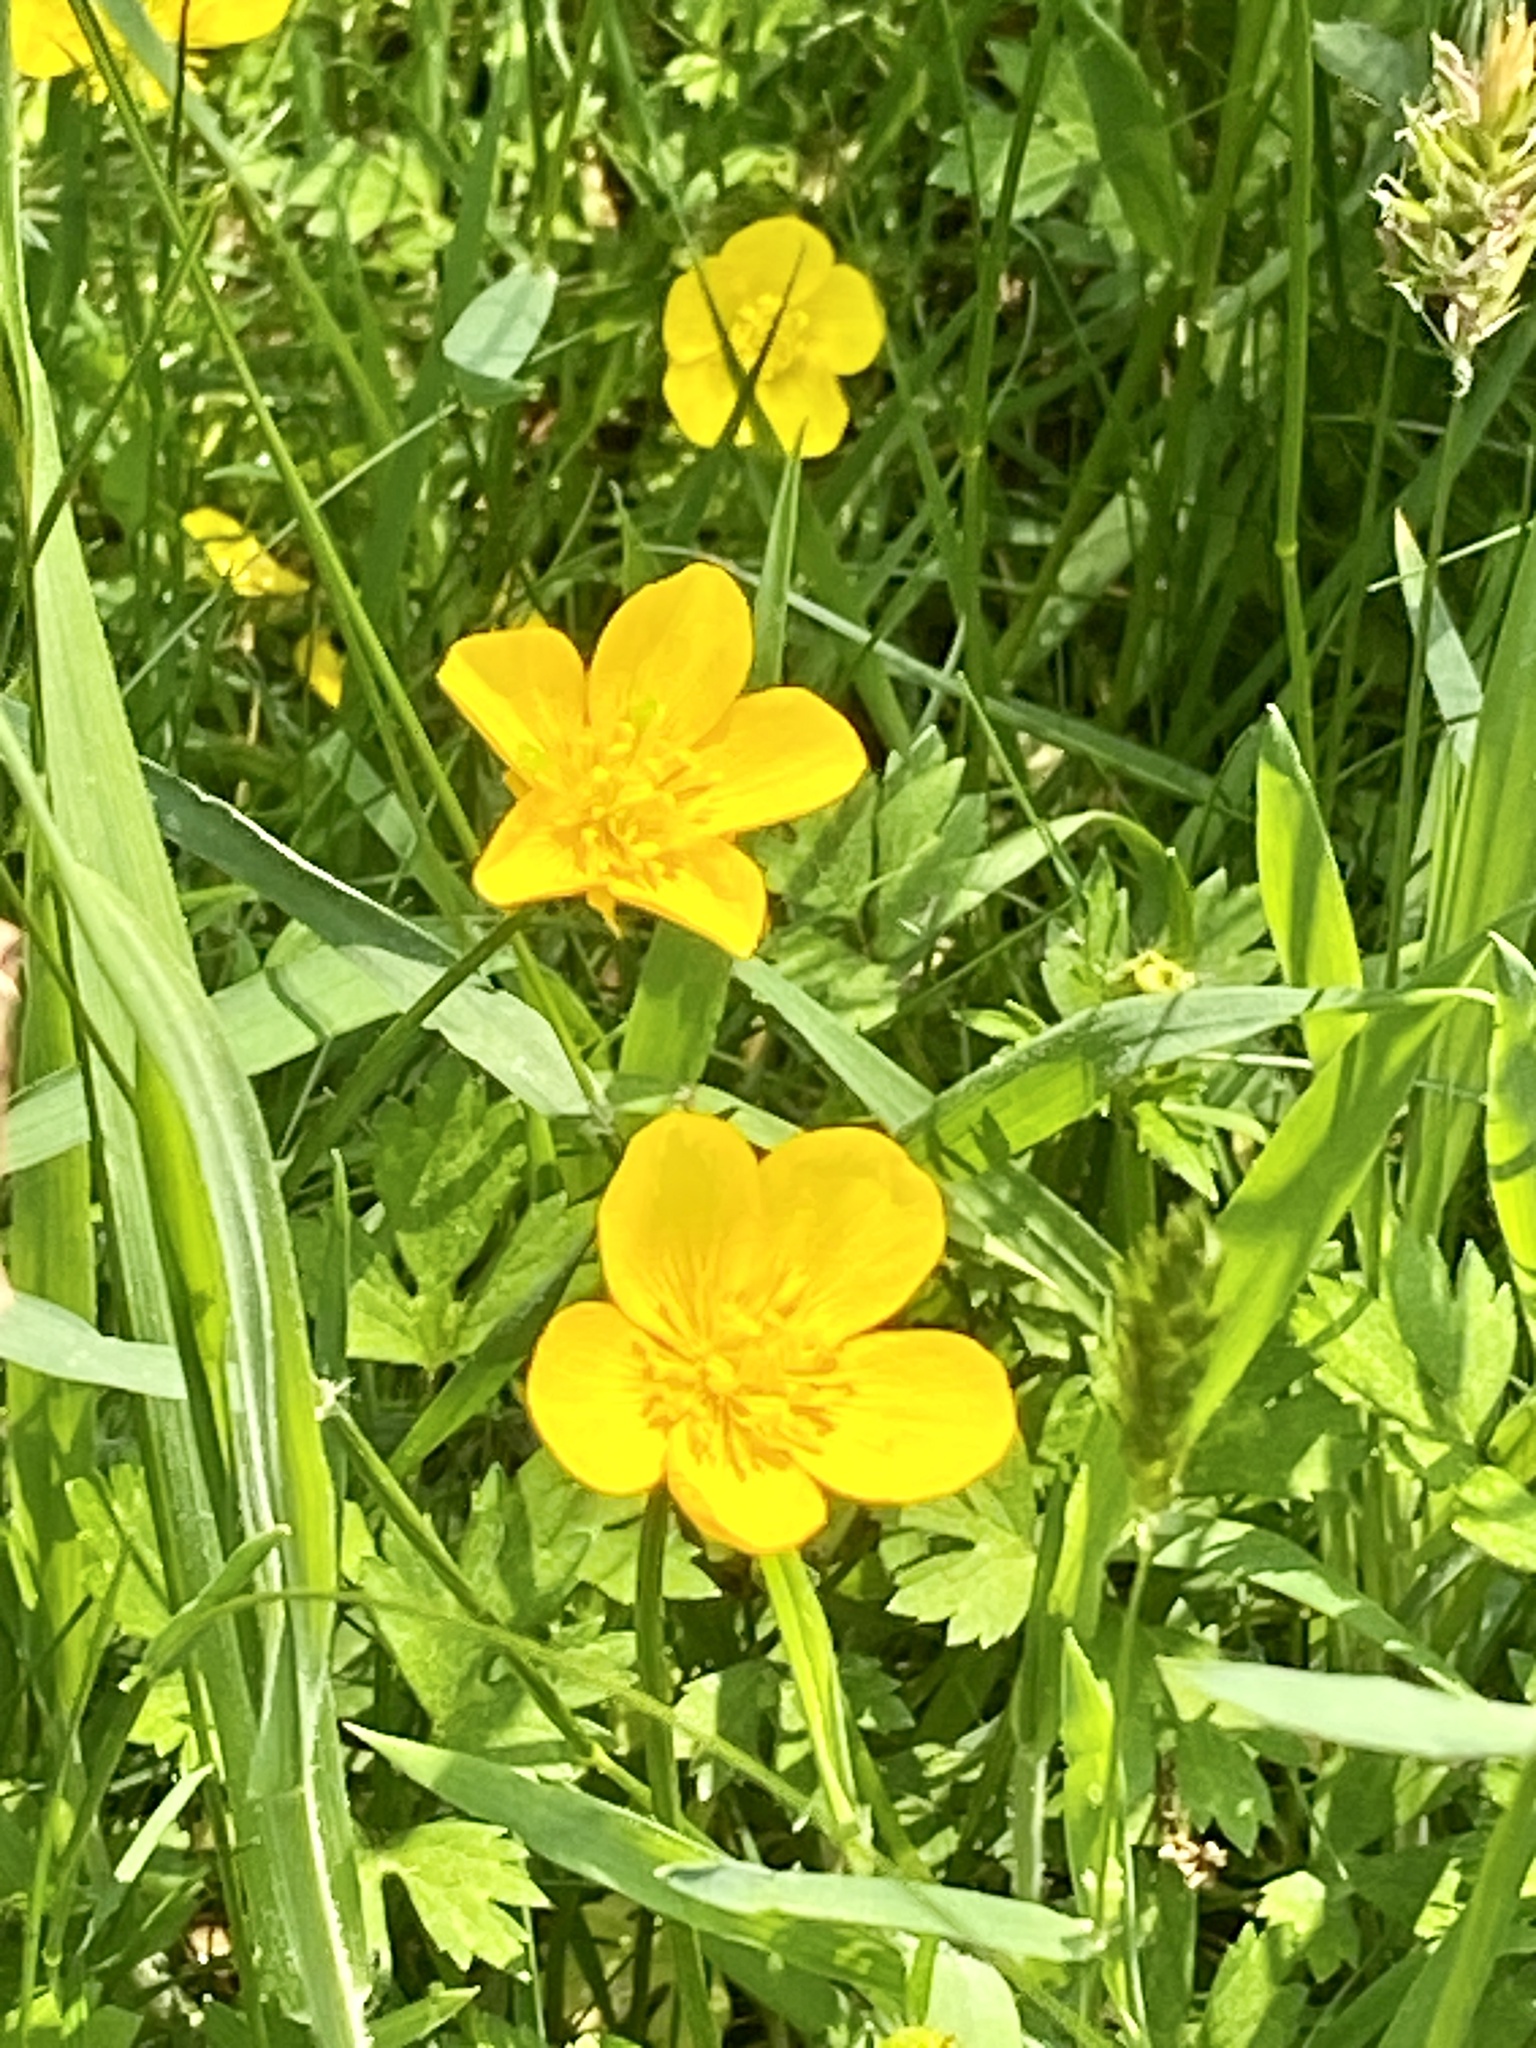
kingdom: Plantae
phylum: Tracheophyta
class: Magnoliopsida
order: Ranunculales
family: Ranunculaceae
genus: Ranunculus
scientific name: Ranunculus repens
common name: Creeping buttercup
